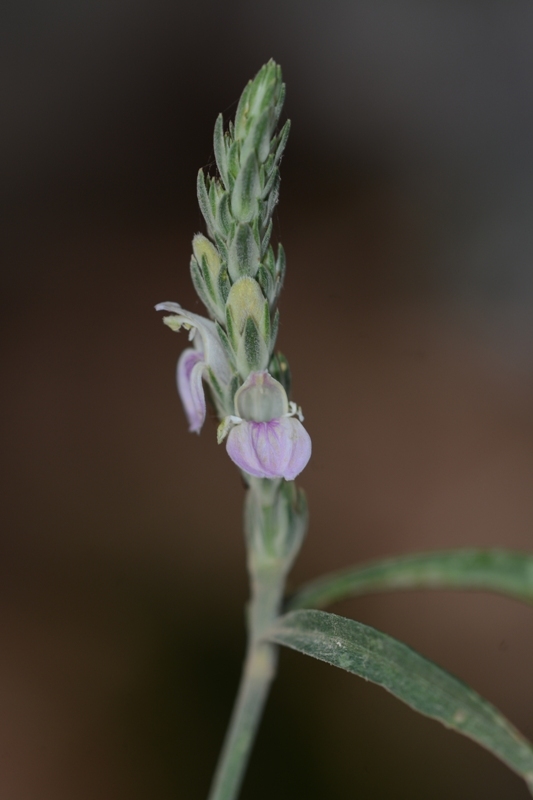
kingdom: Plantae
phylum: Tracheophyta
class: Magnoliopsida
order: Lamiales
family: Acanthaceae
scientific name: Acanthaceae
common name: Acanthaceae
